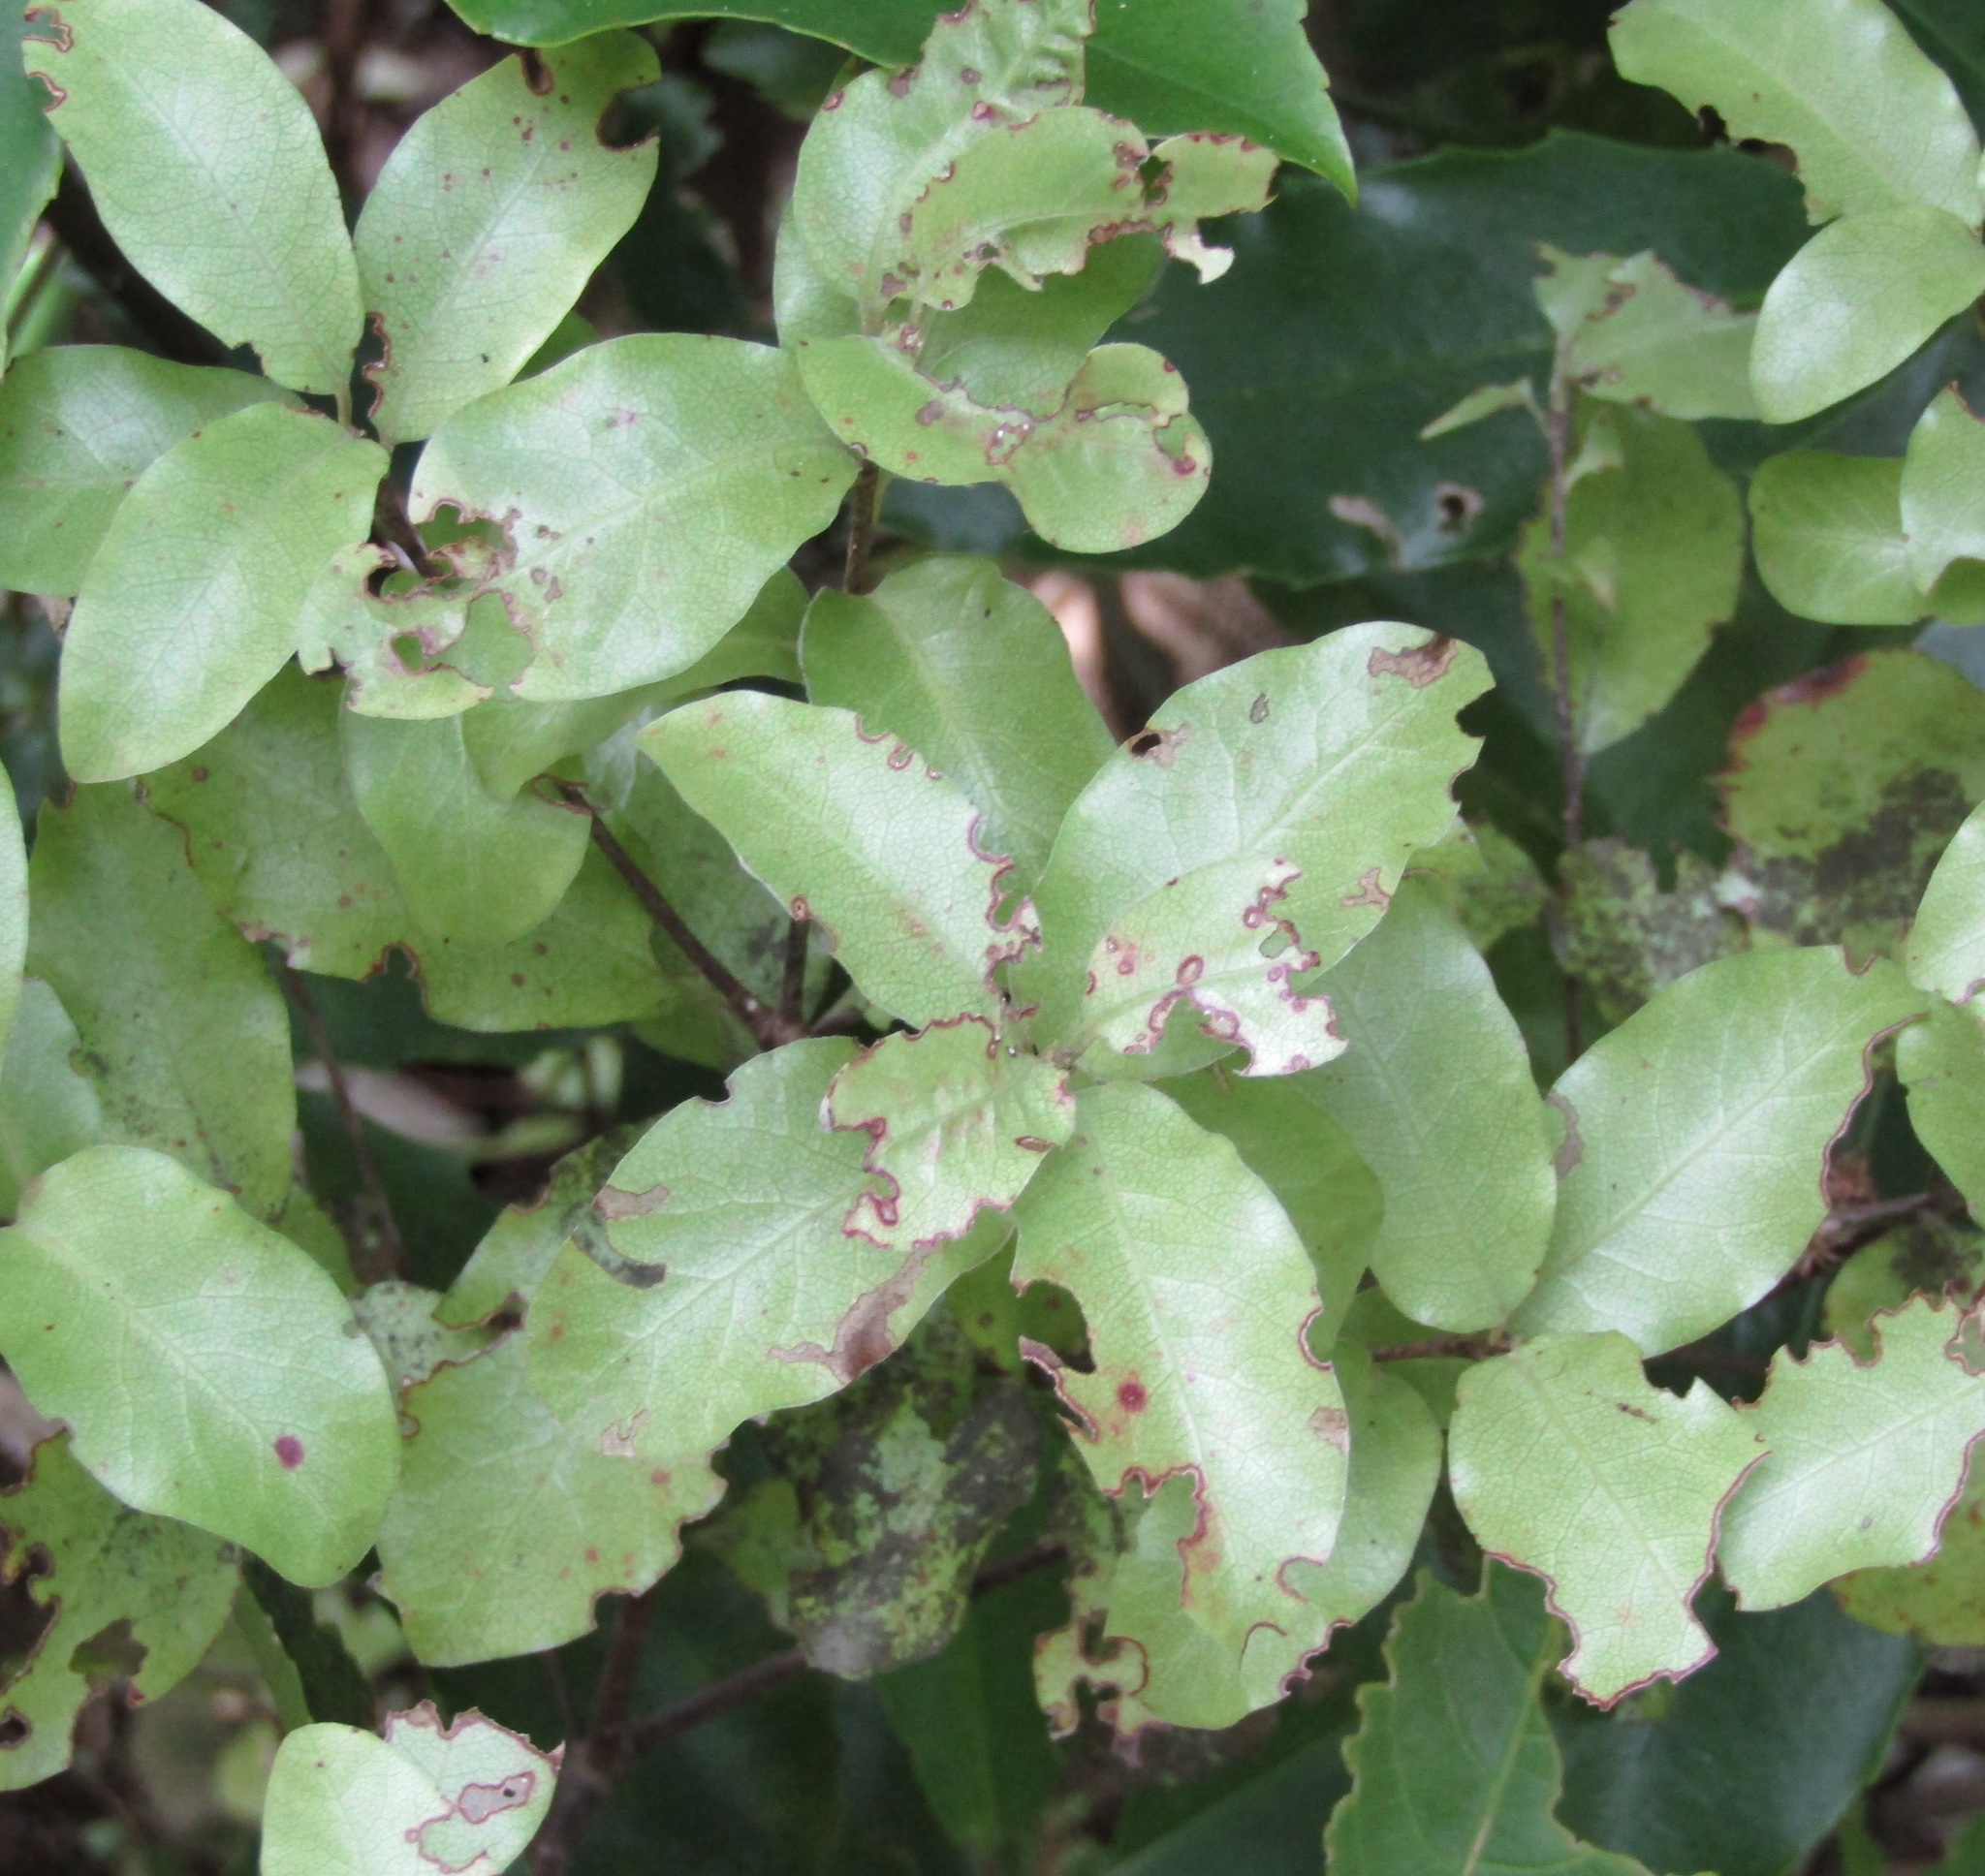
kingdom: Plantae
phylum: Tracheophyta
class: Magnoliopsida
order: Apiales
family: Pittosporaceae
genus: Pittosporum
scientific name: Pittosporum tenuifolium
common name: Kohuhu
